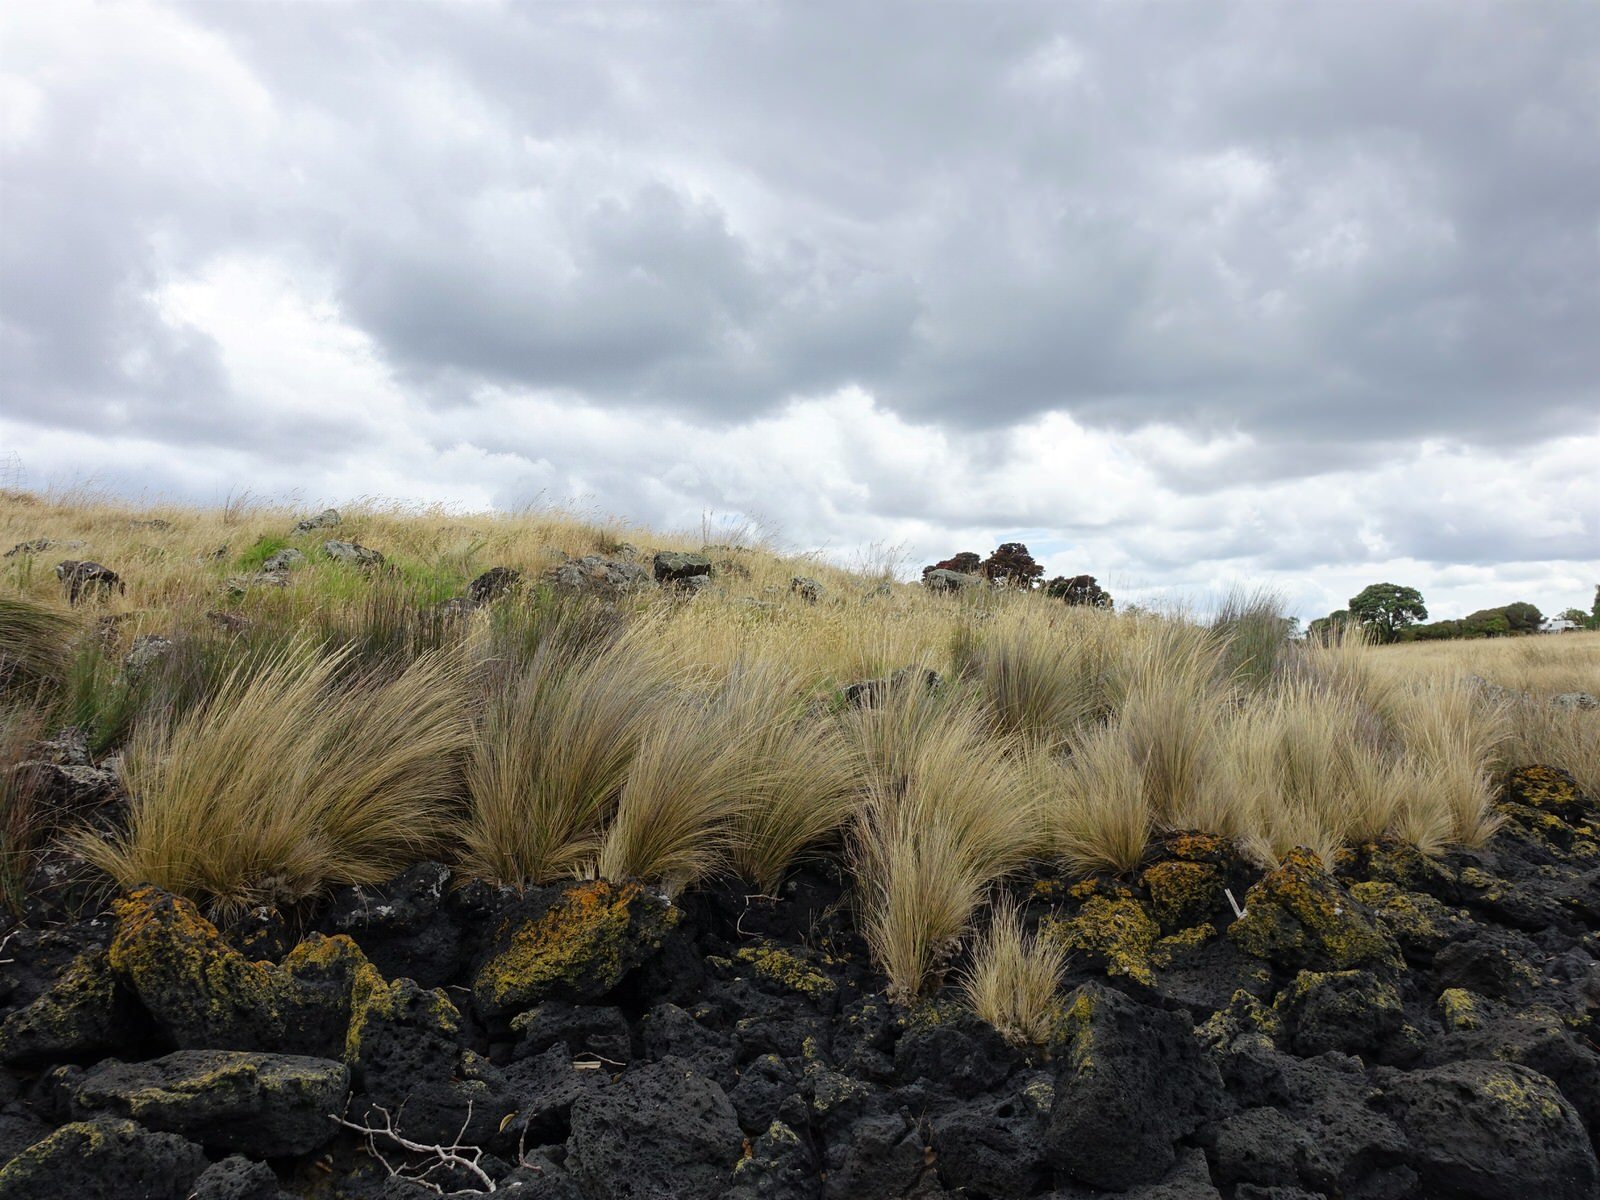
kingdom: Plantae
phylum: Tracheophyta
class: Liliopsida
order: Poales
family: Poaceae
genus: Austrostipa
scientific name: Austrostipa stipoides
